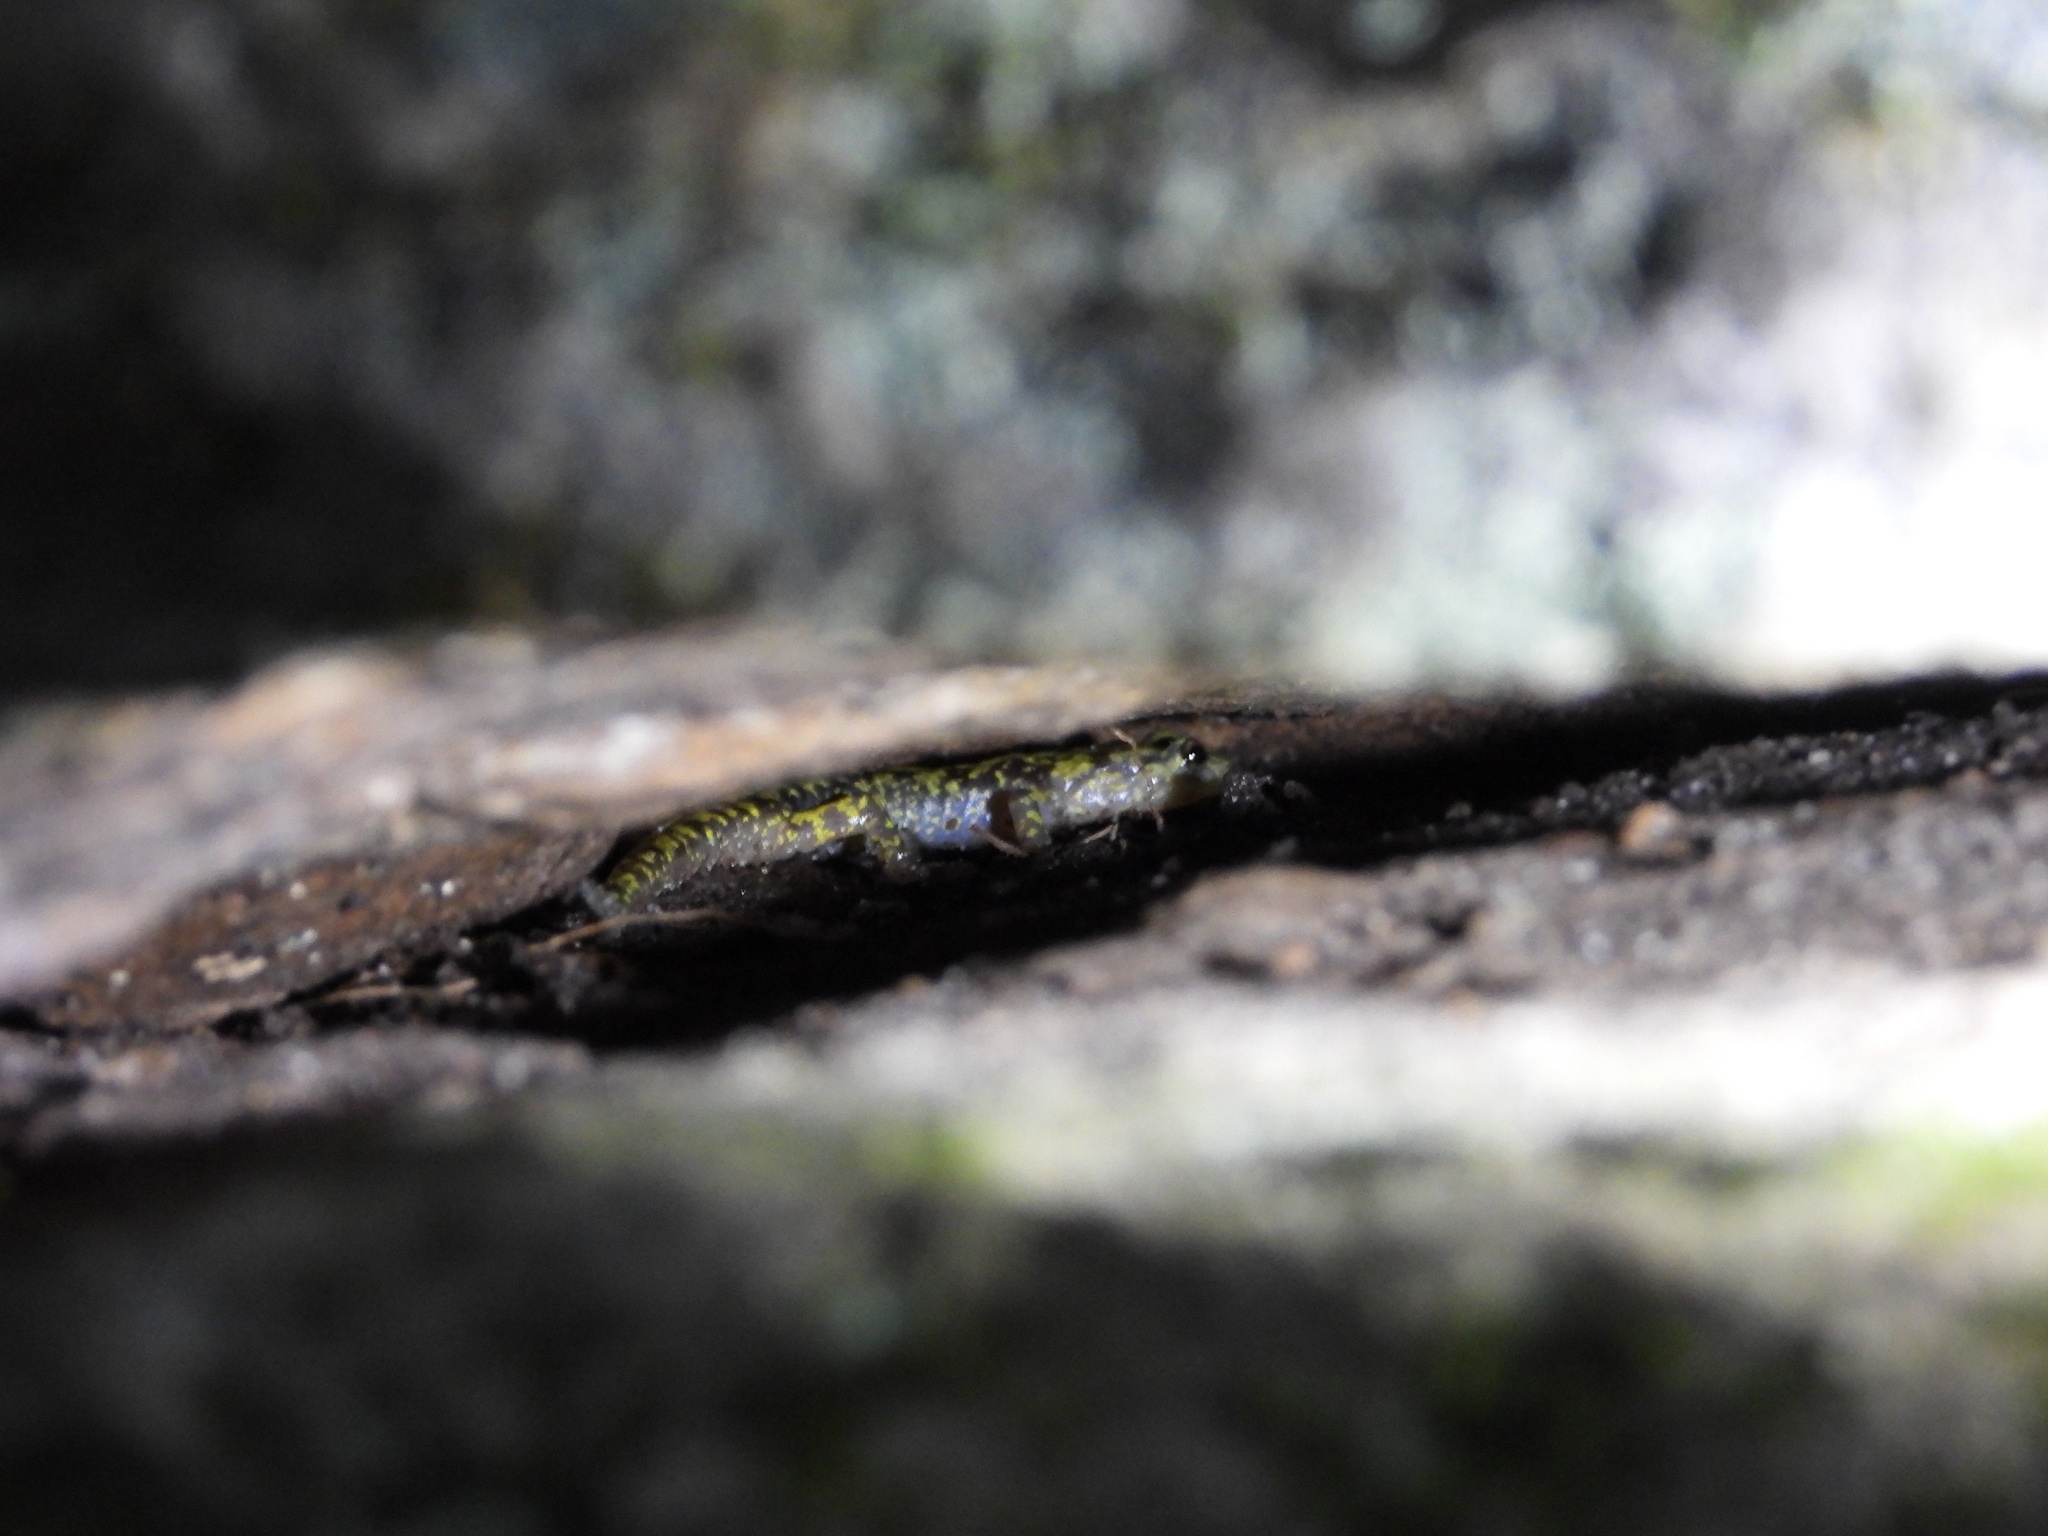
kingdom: Animalia
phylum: Chordata
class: Amphibia
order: Caudata
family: Plethodontidae
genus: Aneides
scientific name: Aneides aeneus
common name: Green salamander
